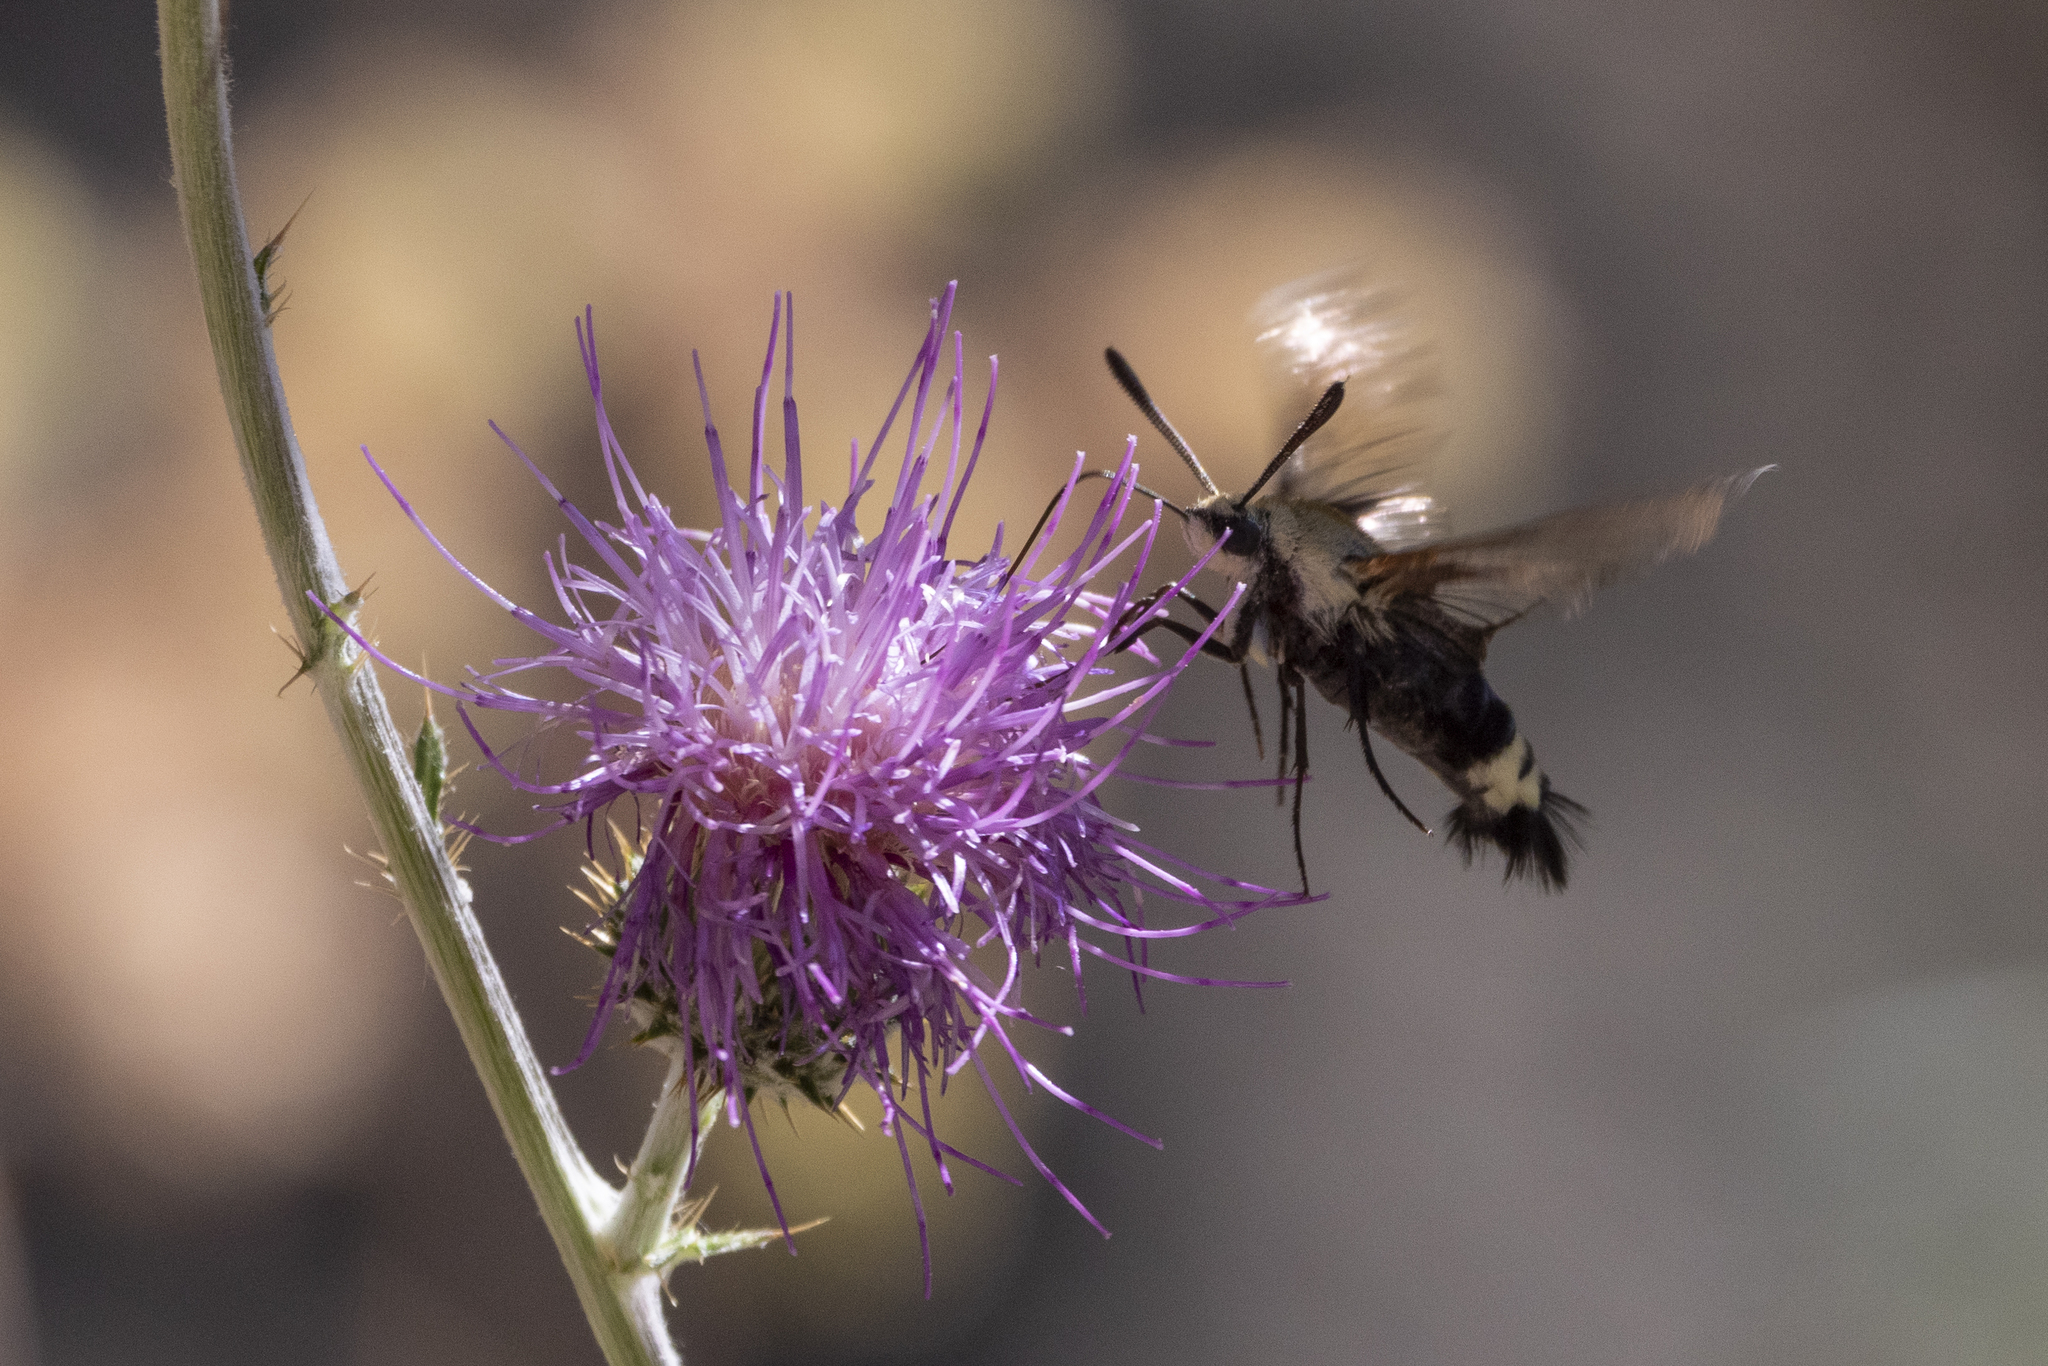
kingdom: Animalia
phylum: Arthropoda
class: Insecta
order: Lepidoptera
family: Sphingidae
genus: Hemaris
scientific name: Hemaris thetis
